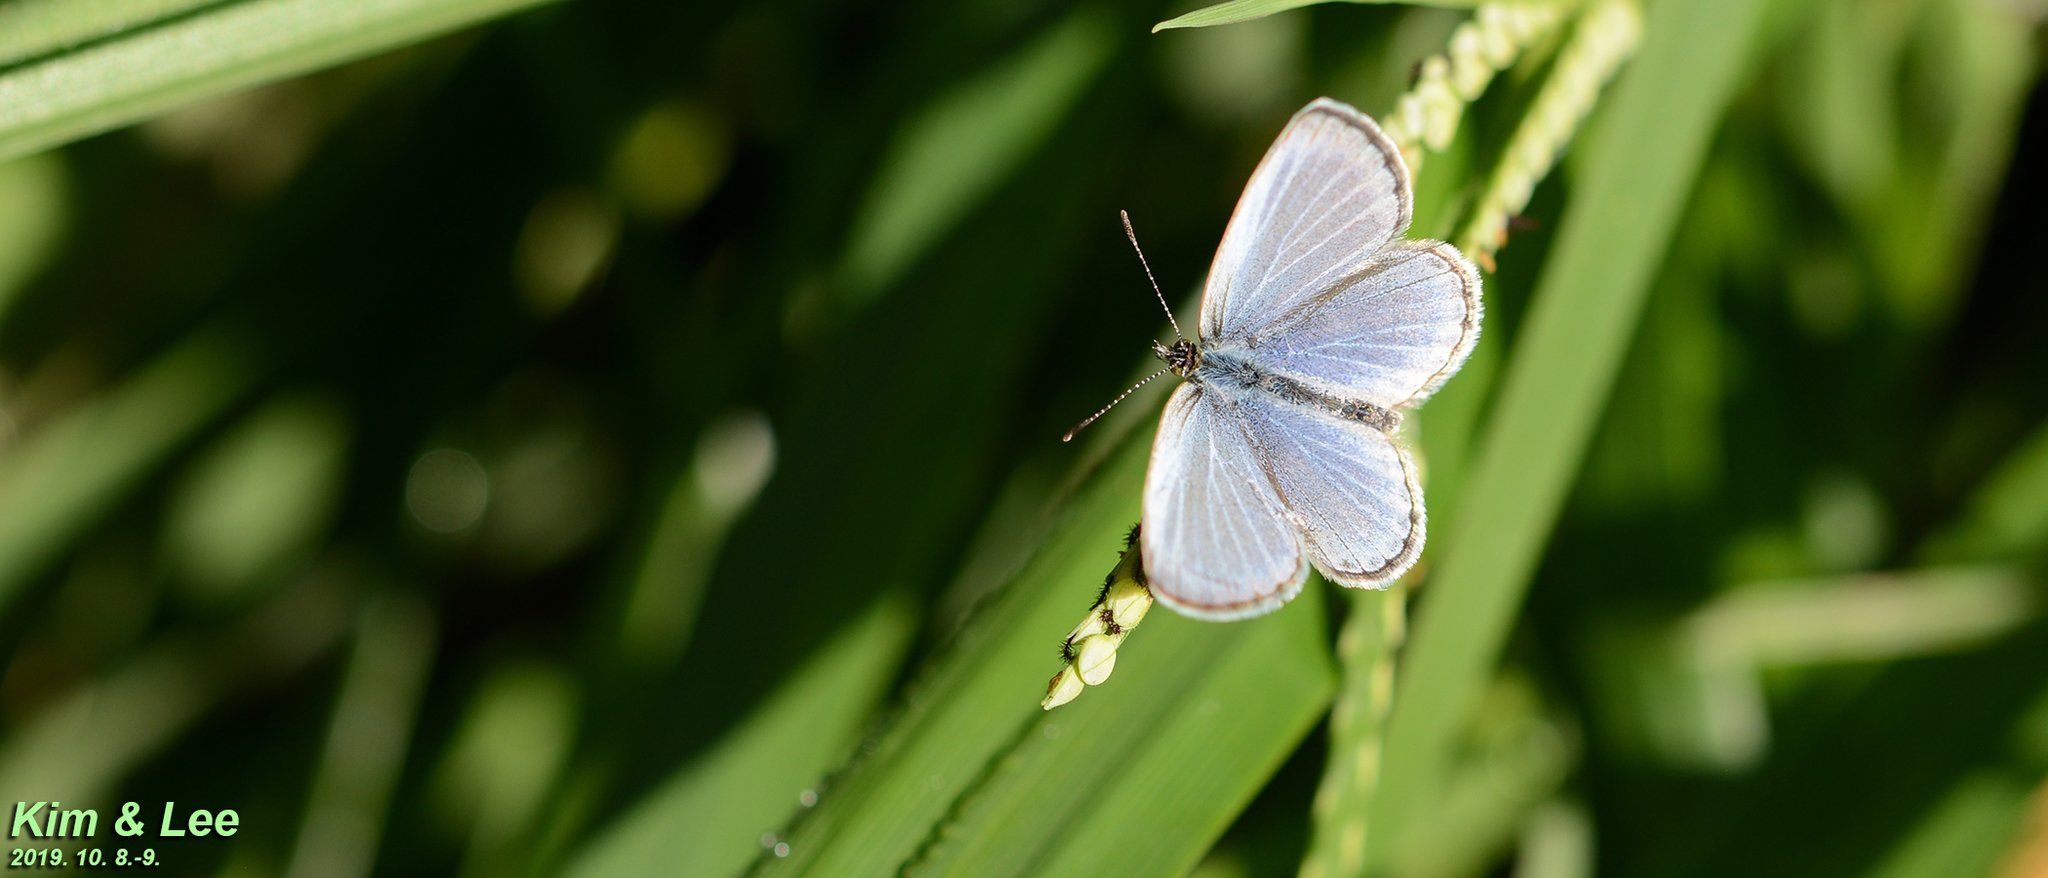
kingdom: Animalia
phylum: Arthropoda
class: Insecta
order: Lepidoptera
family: Lycaenidae
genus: Pseudozizeeria
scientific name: Pseudozizeeria maha
